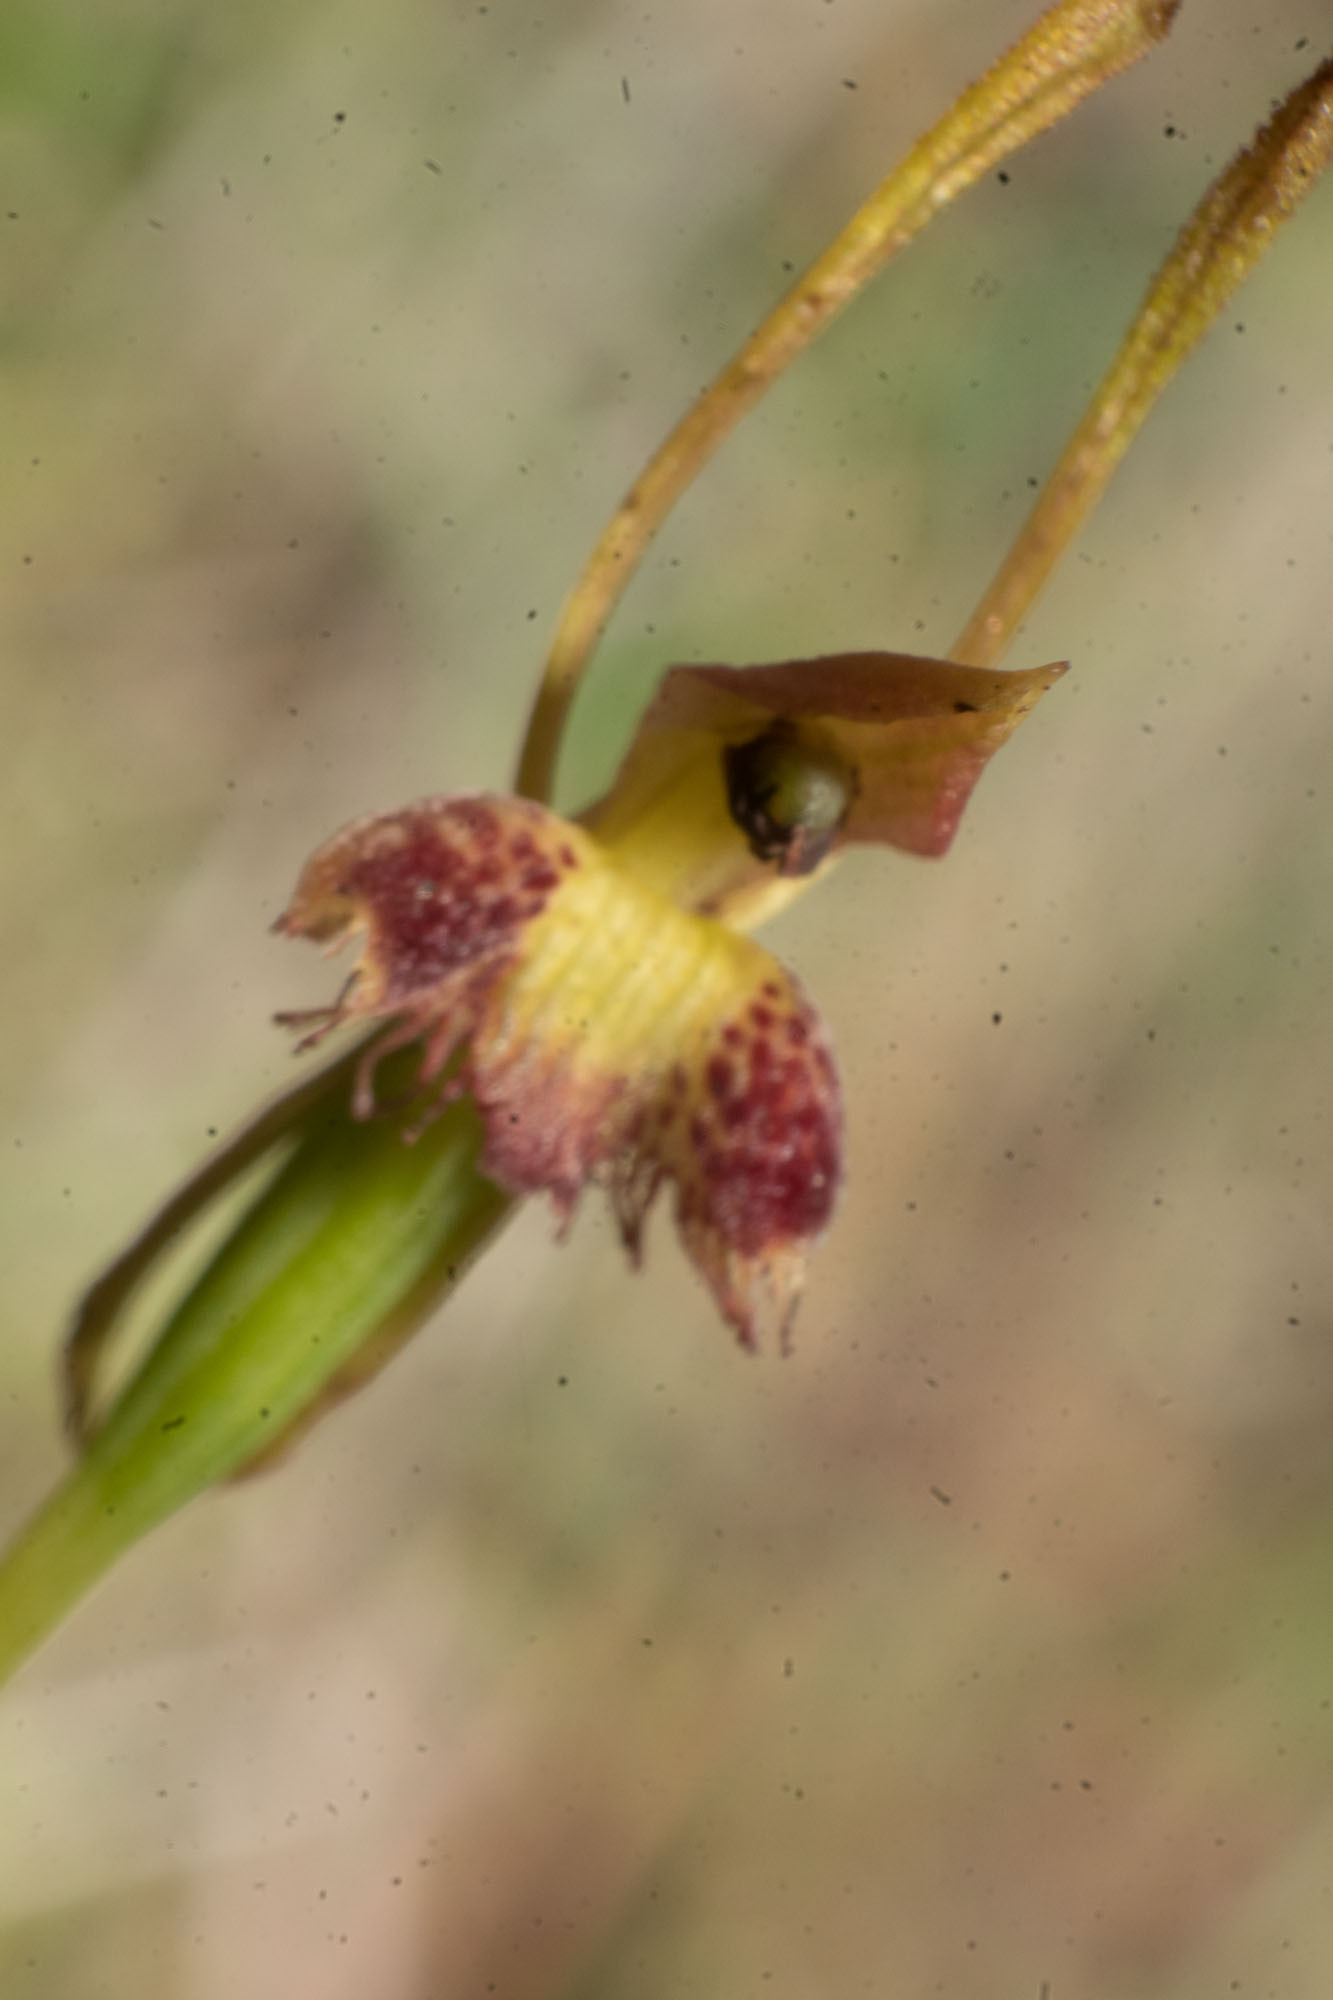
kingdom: Plantae
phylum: Tracheophyta
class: Liliopsida
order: Asparagales
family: Orchidaceae
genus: Leporella
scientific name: Leporella fimbriata
